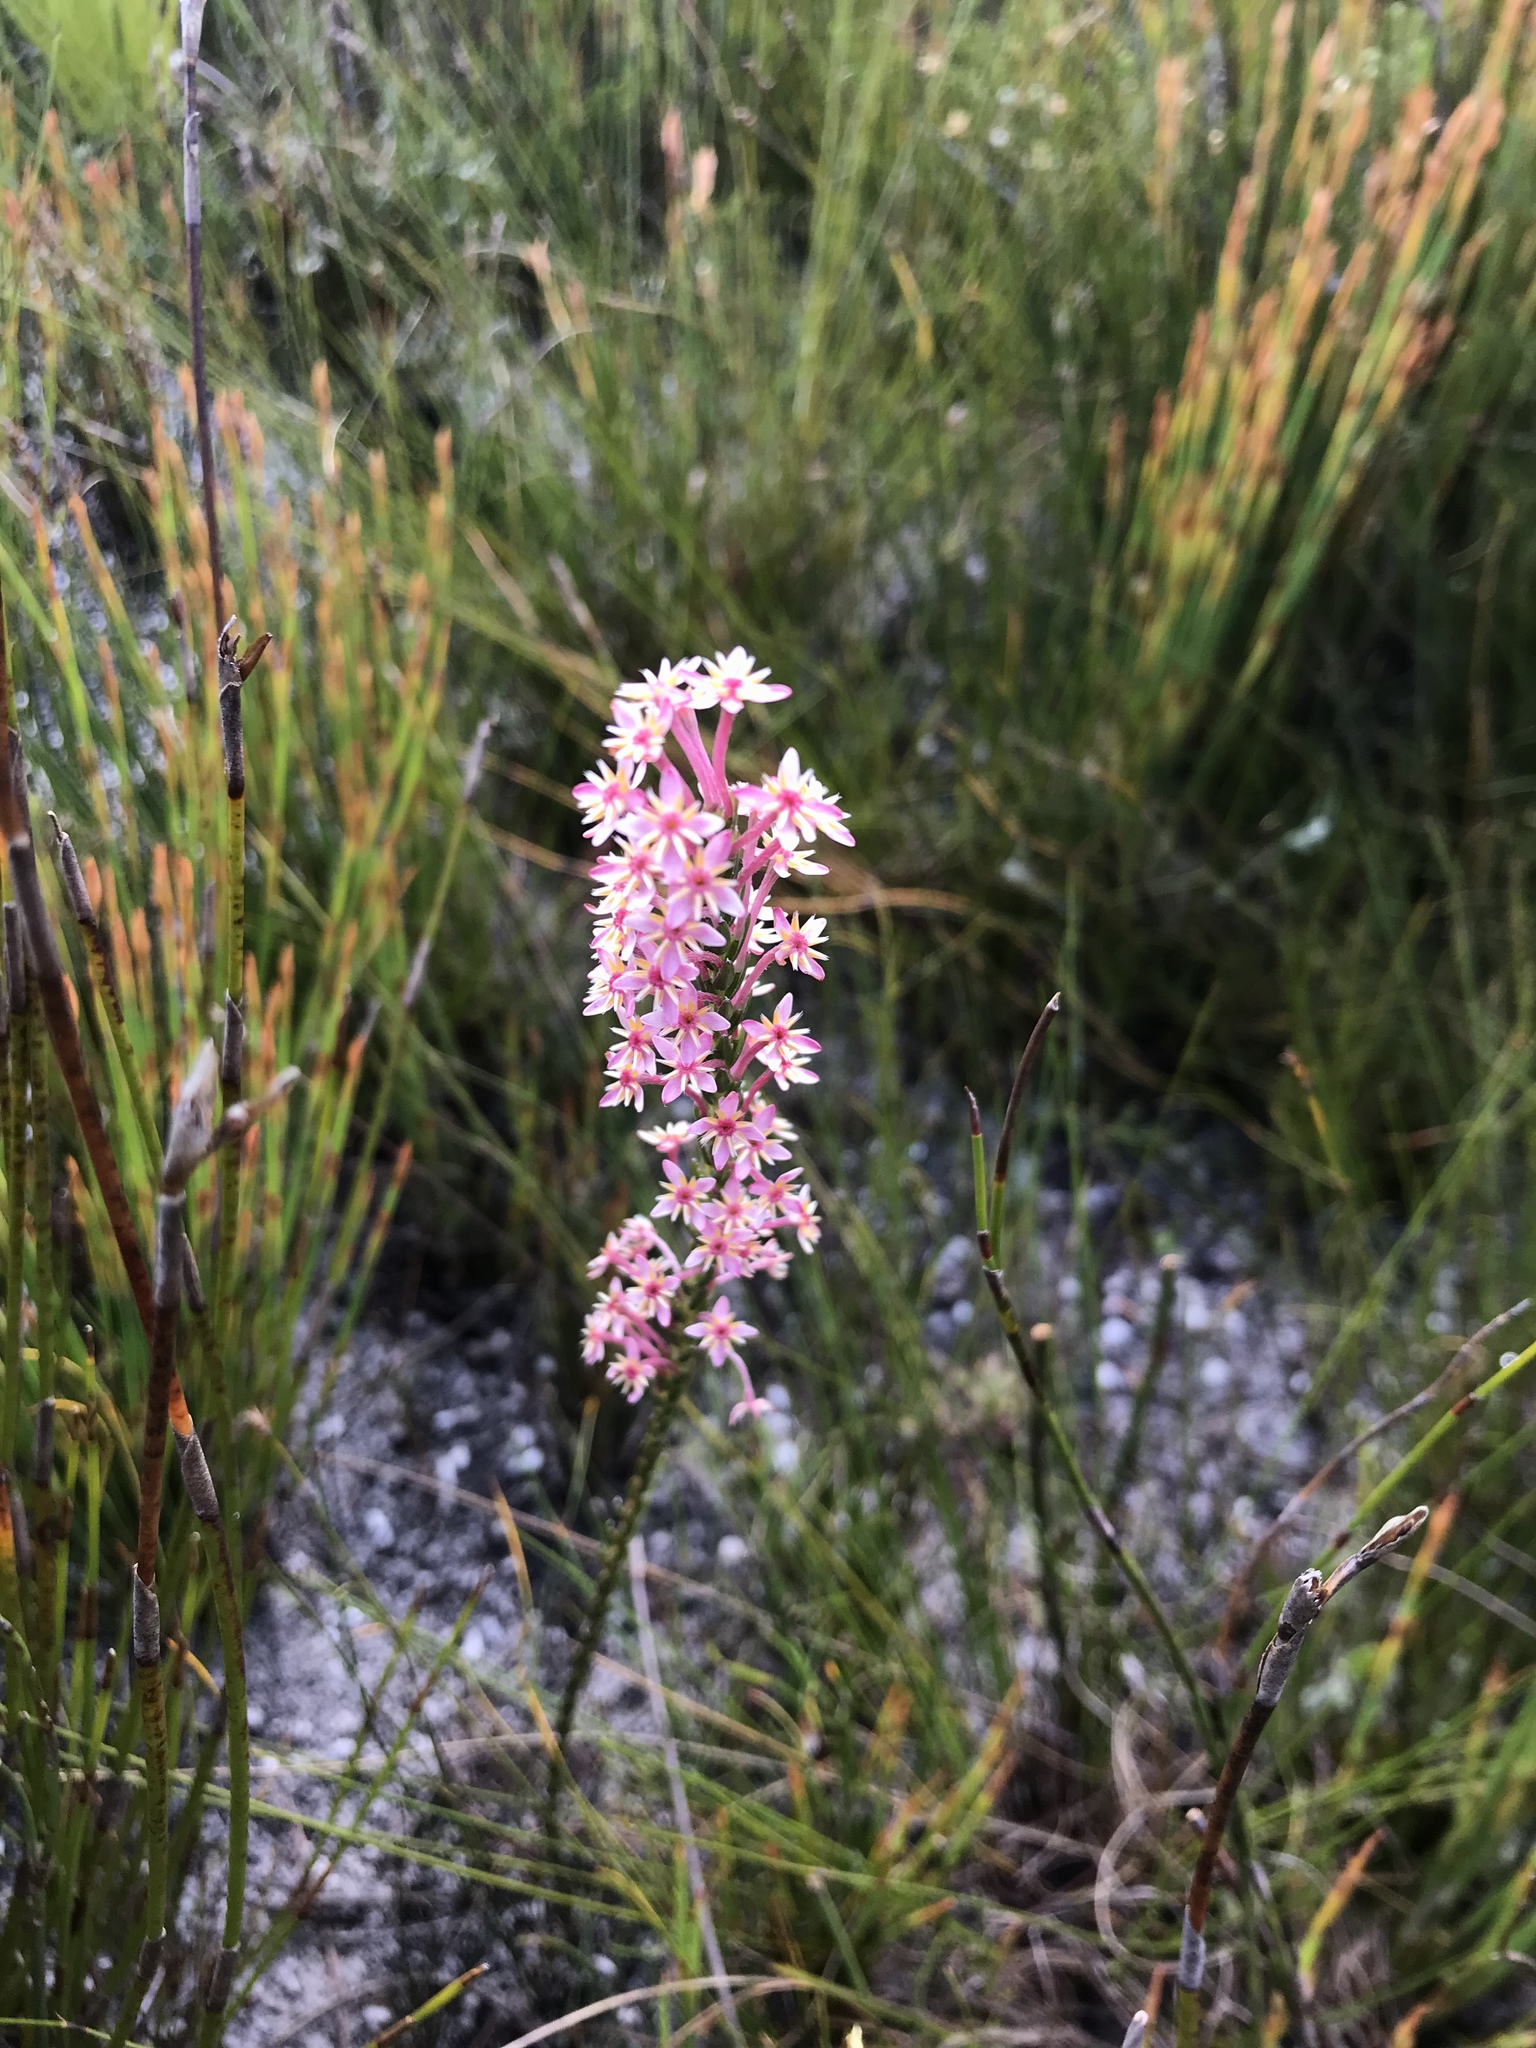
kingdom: Plantae
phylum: Tracheophyta
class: Magnoliopsida
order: Malvales
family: Thymelaeaceae
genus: Struthiola
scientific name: Struthiola ciliata
